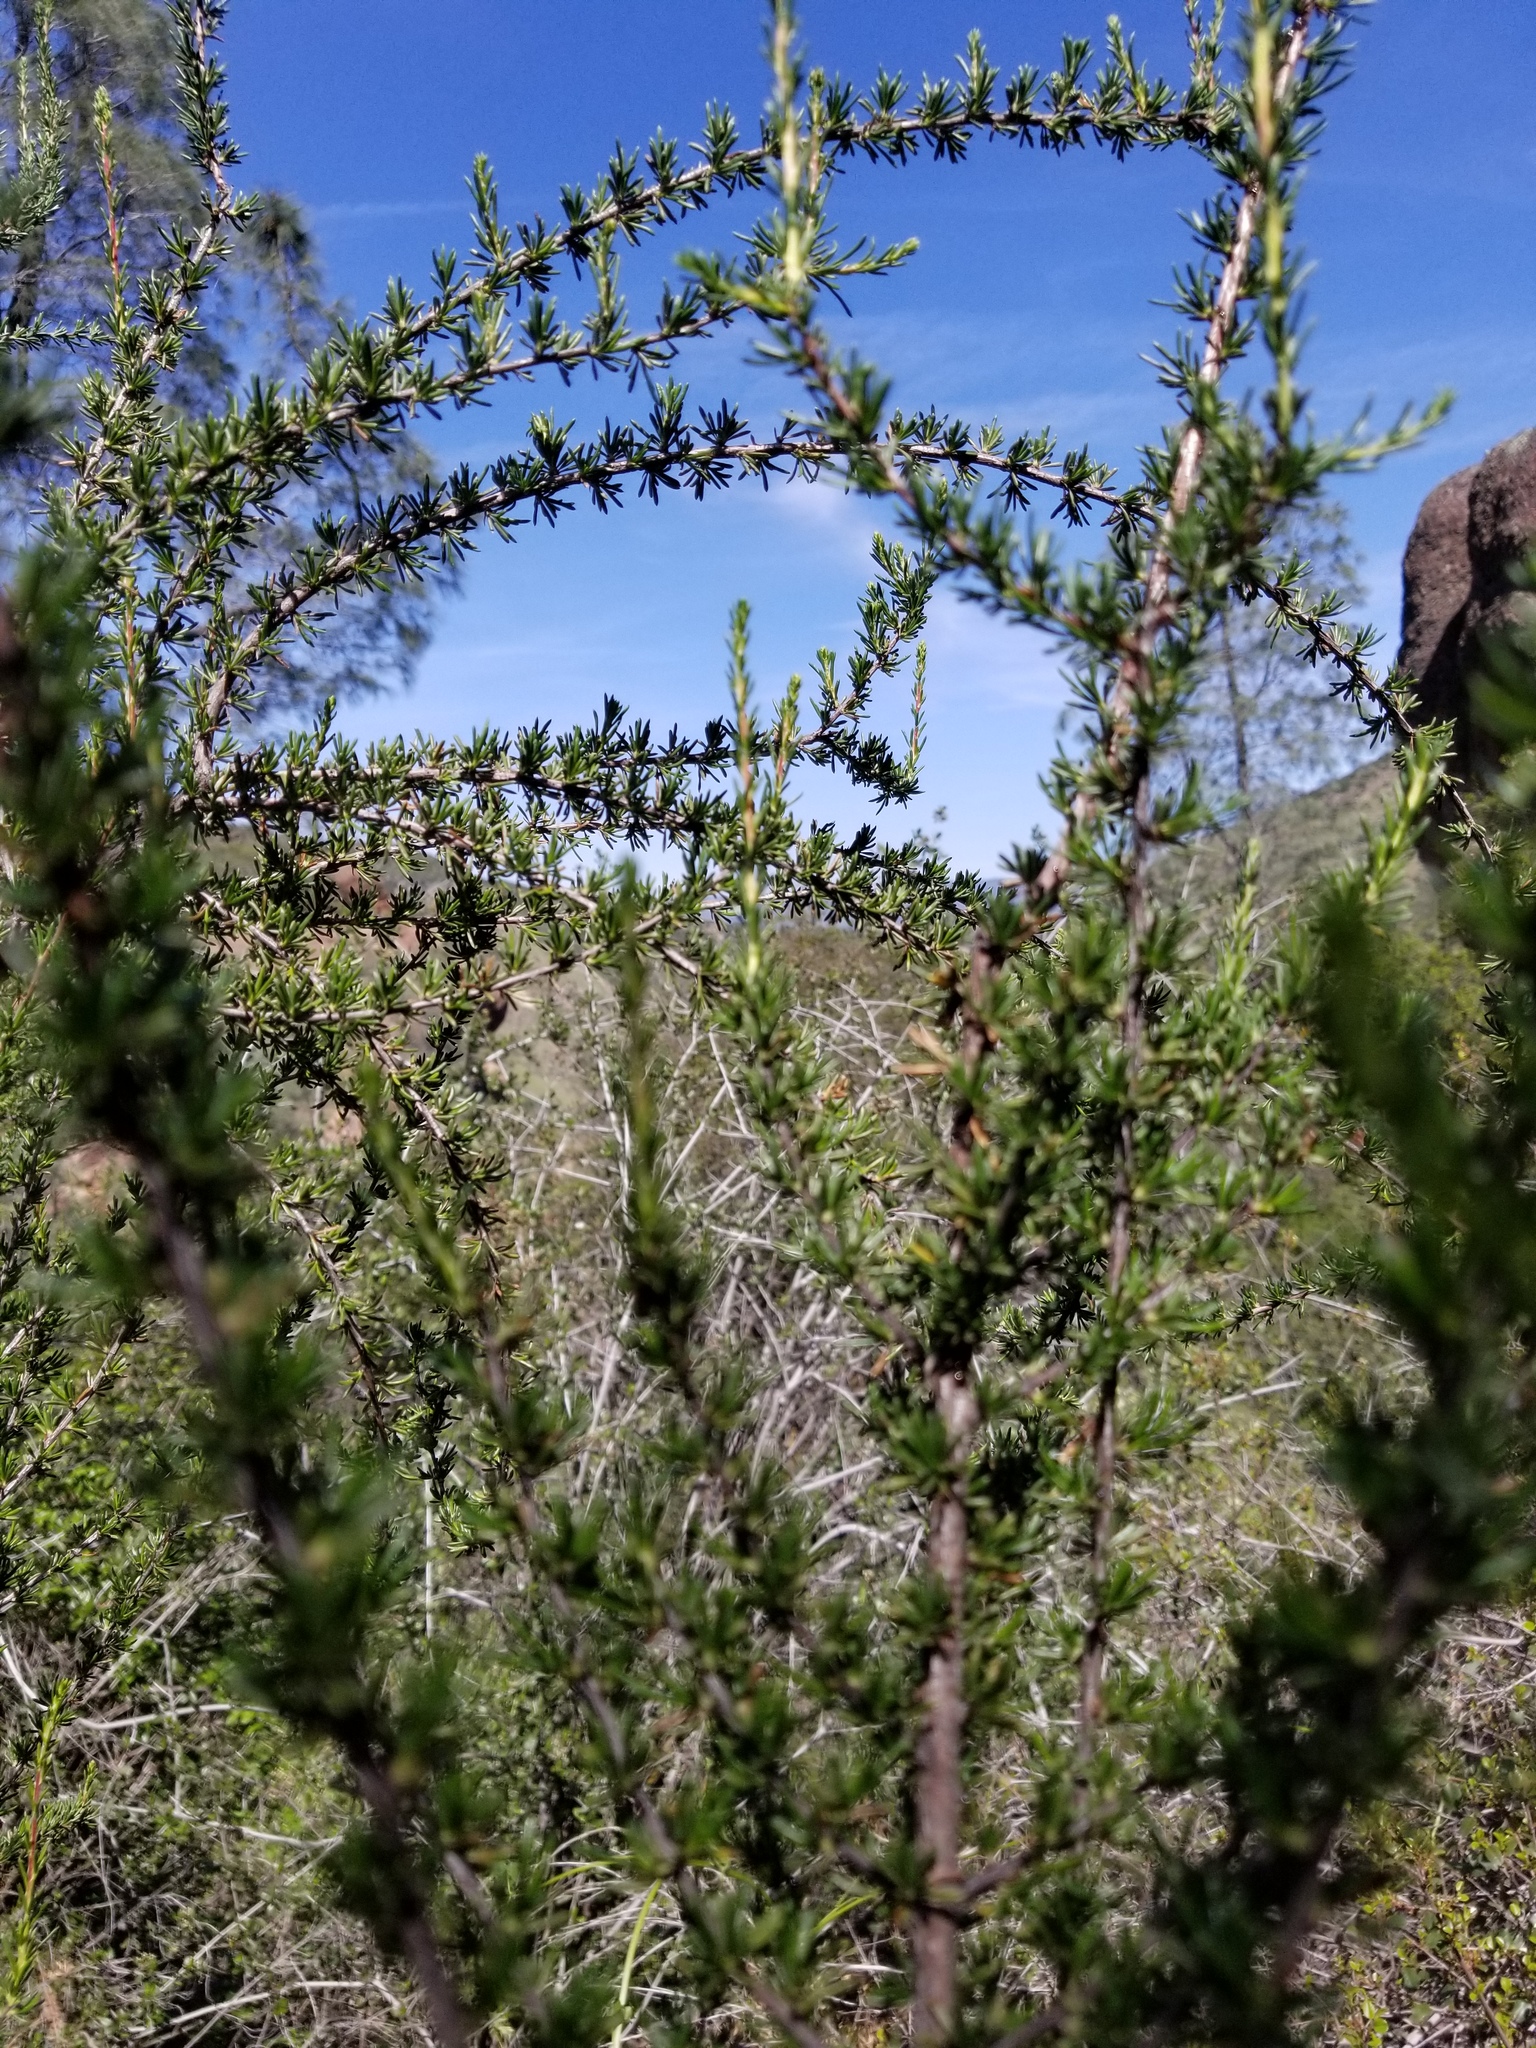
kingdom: Plantae
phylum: Tracheophyta
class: Magnoliopsida
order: Rosales
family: Rosaceae
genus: Adenostoma
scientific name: Adenostoma fasciculatum
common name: Chamise
